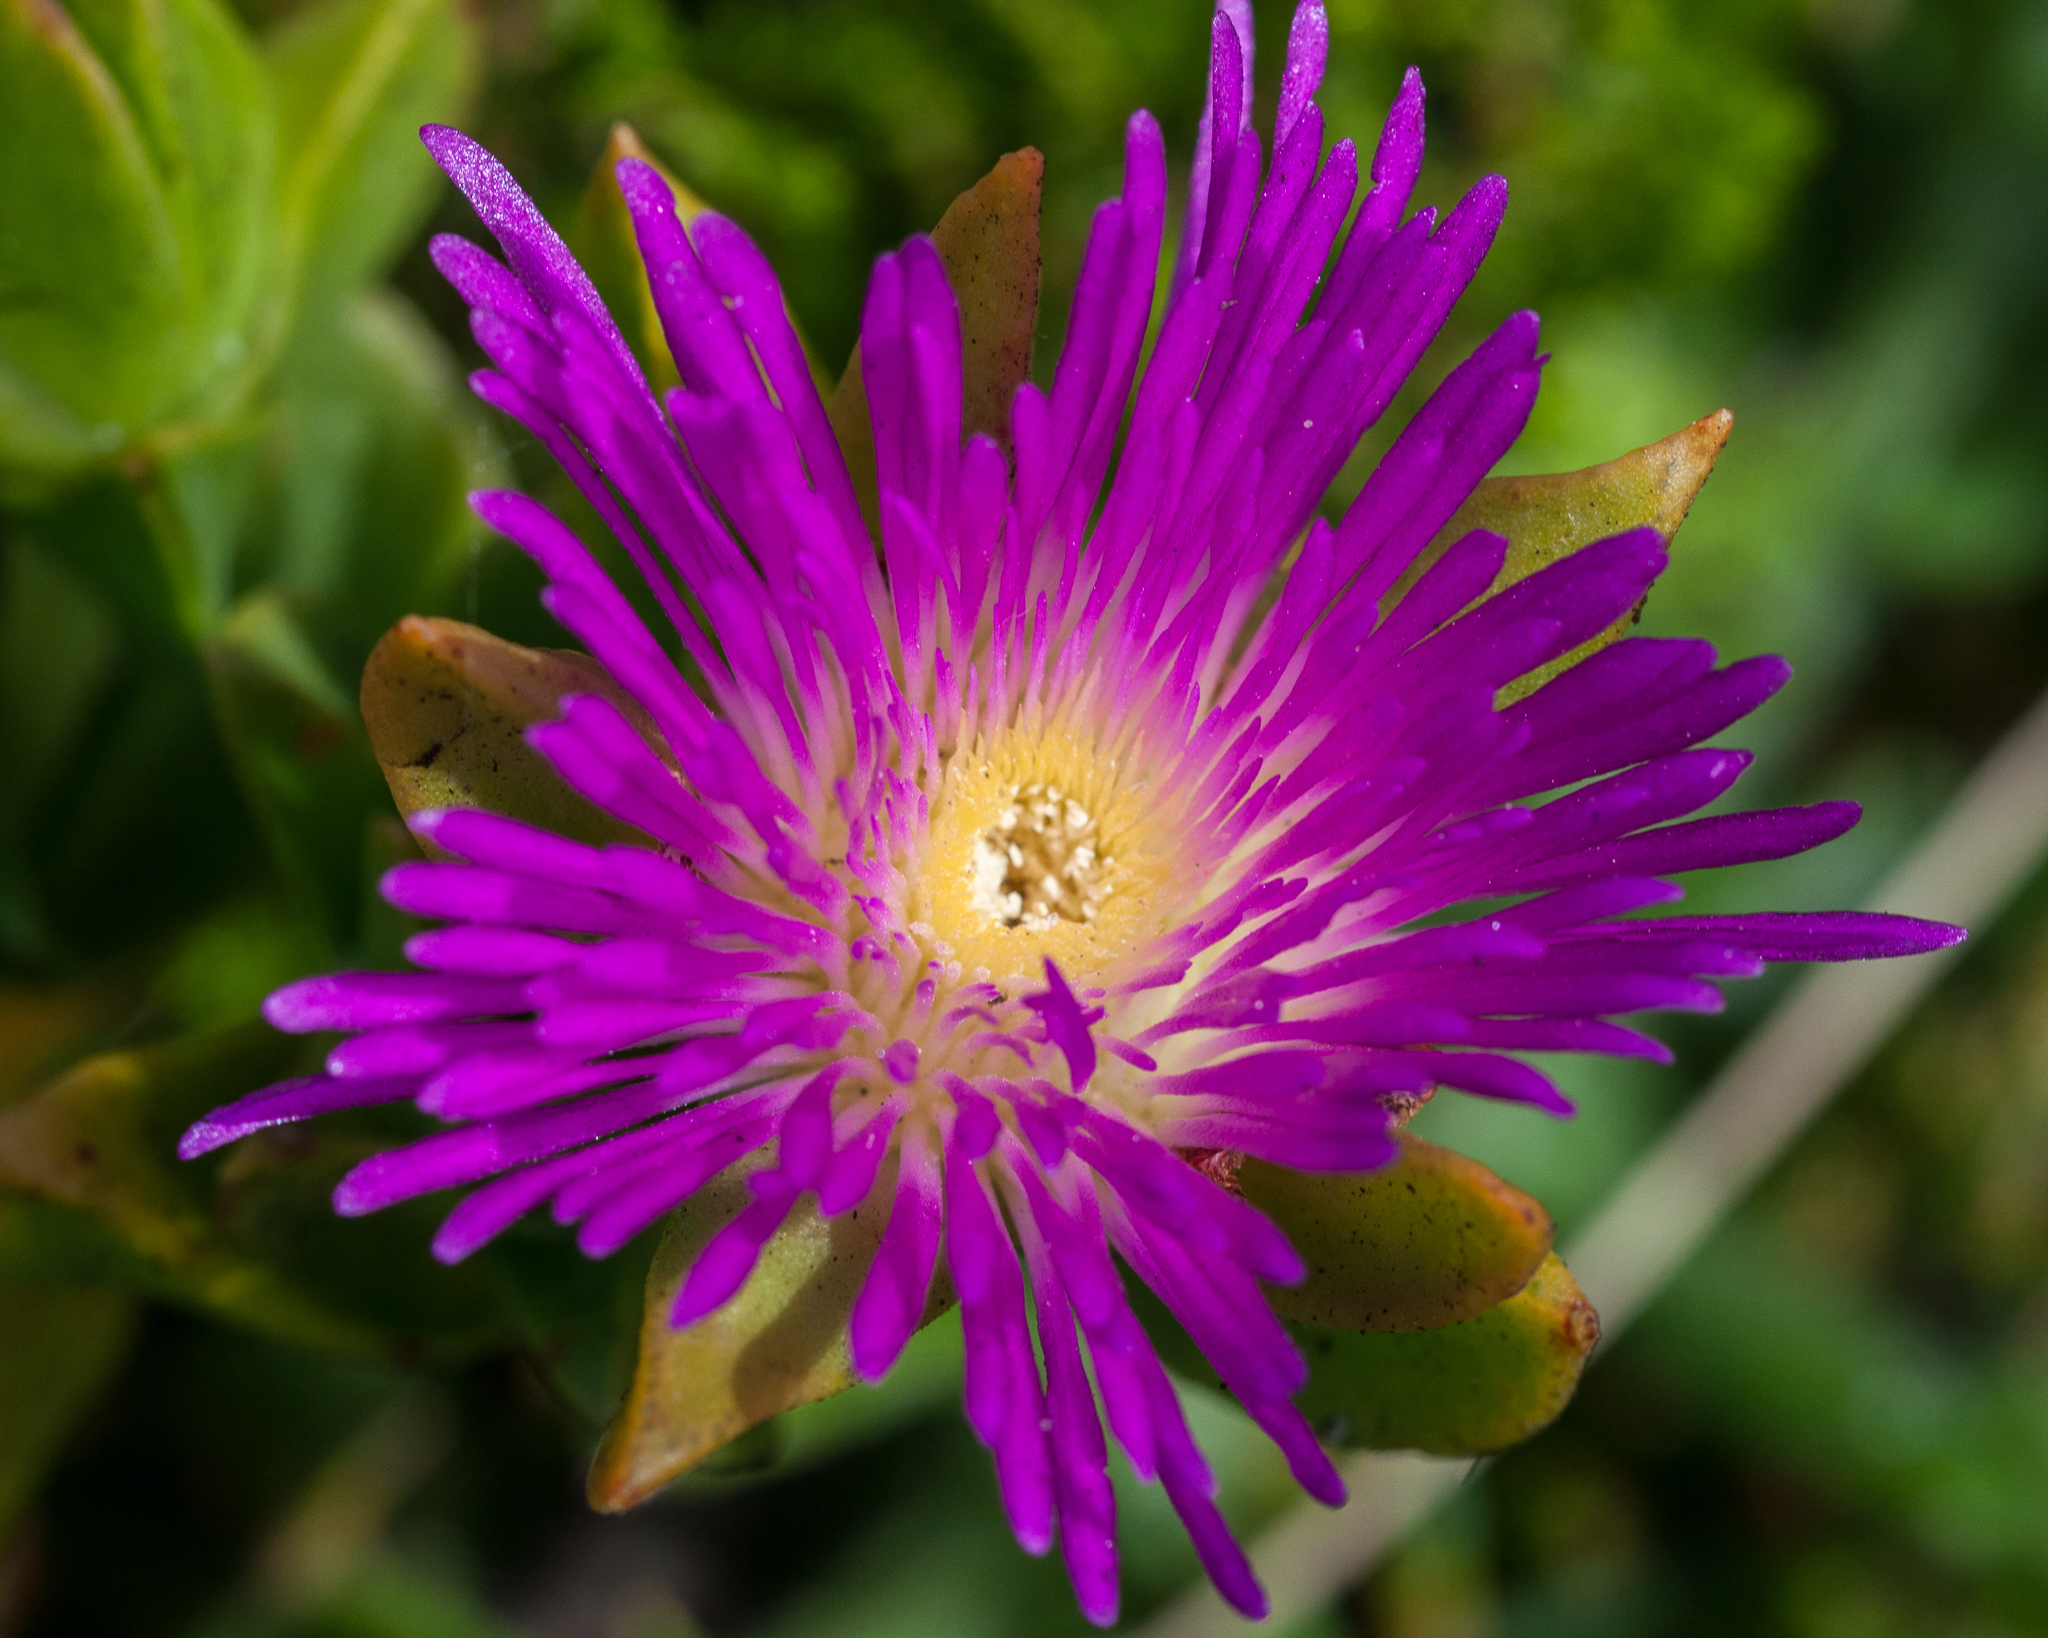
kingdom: Plantae
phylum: Tracheophyta
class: Magnoliopsida
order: Caryophyllales
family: Aizoaceae
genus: Erepsia
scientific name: Erepsia steytlerae
